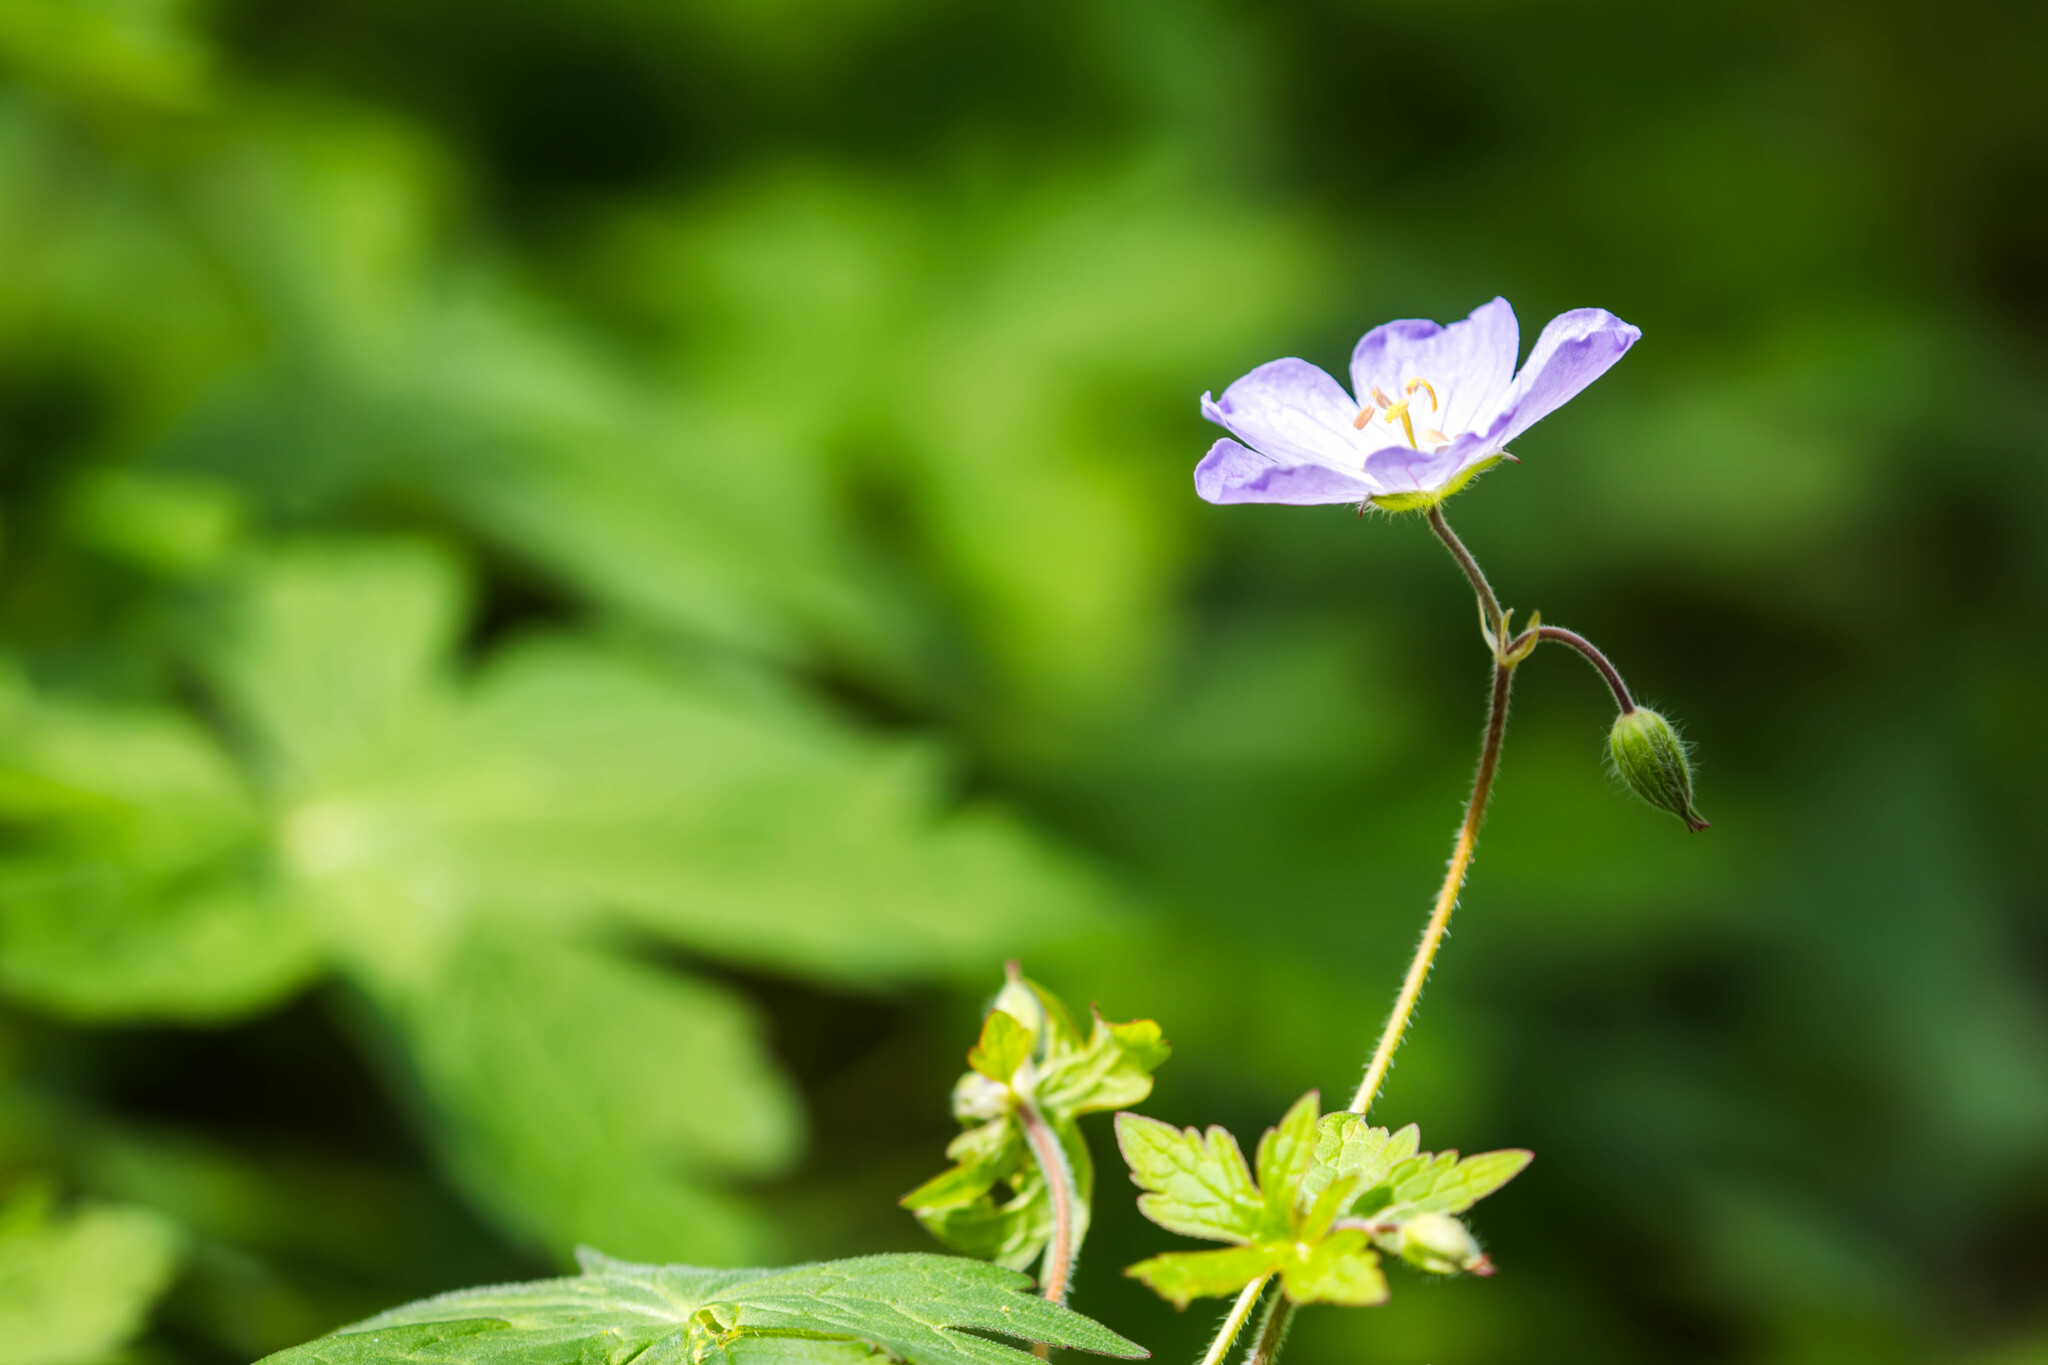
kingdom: Plantae
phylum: Tracheophyta
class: Magnoliopsida
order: Geraniales
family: Geraniaceae
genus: Geranium
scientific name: Geranium maculatum
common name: Spotted geranium
